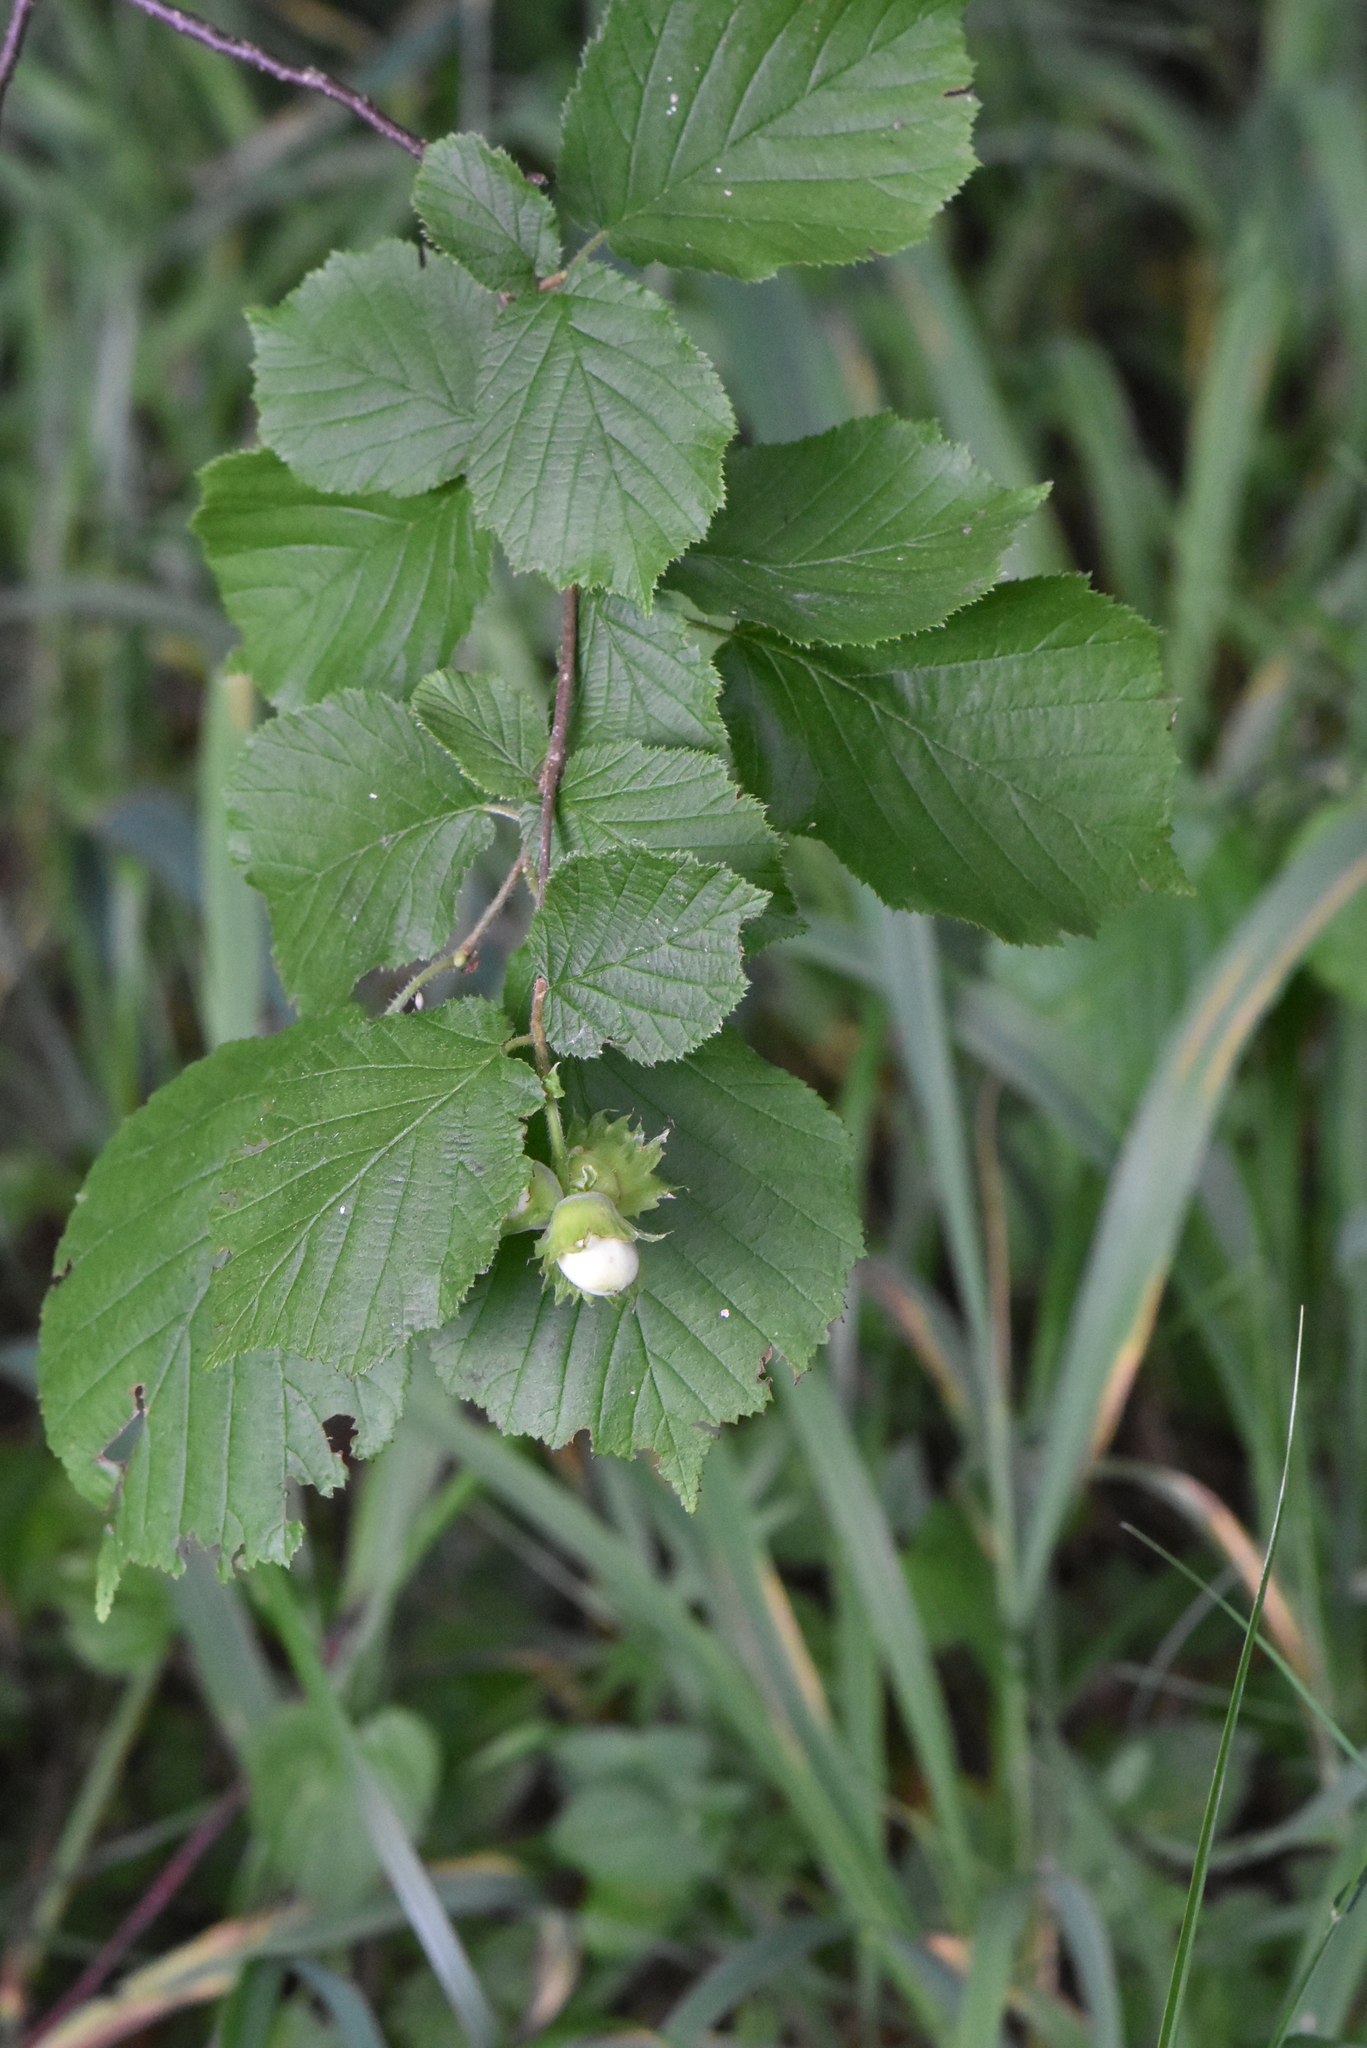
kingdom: Plantae
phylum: Tracheophyta
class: Magnoliopsida
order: Fagales
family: Betulaceae
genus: Corylus
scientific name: Corylus avellana
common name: European hazel
